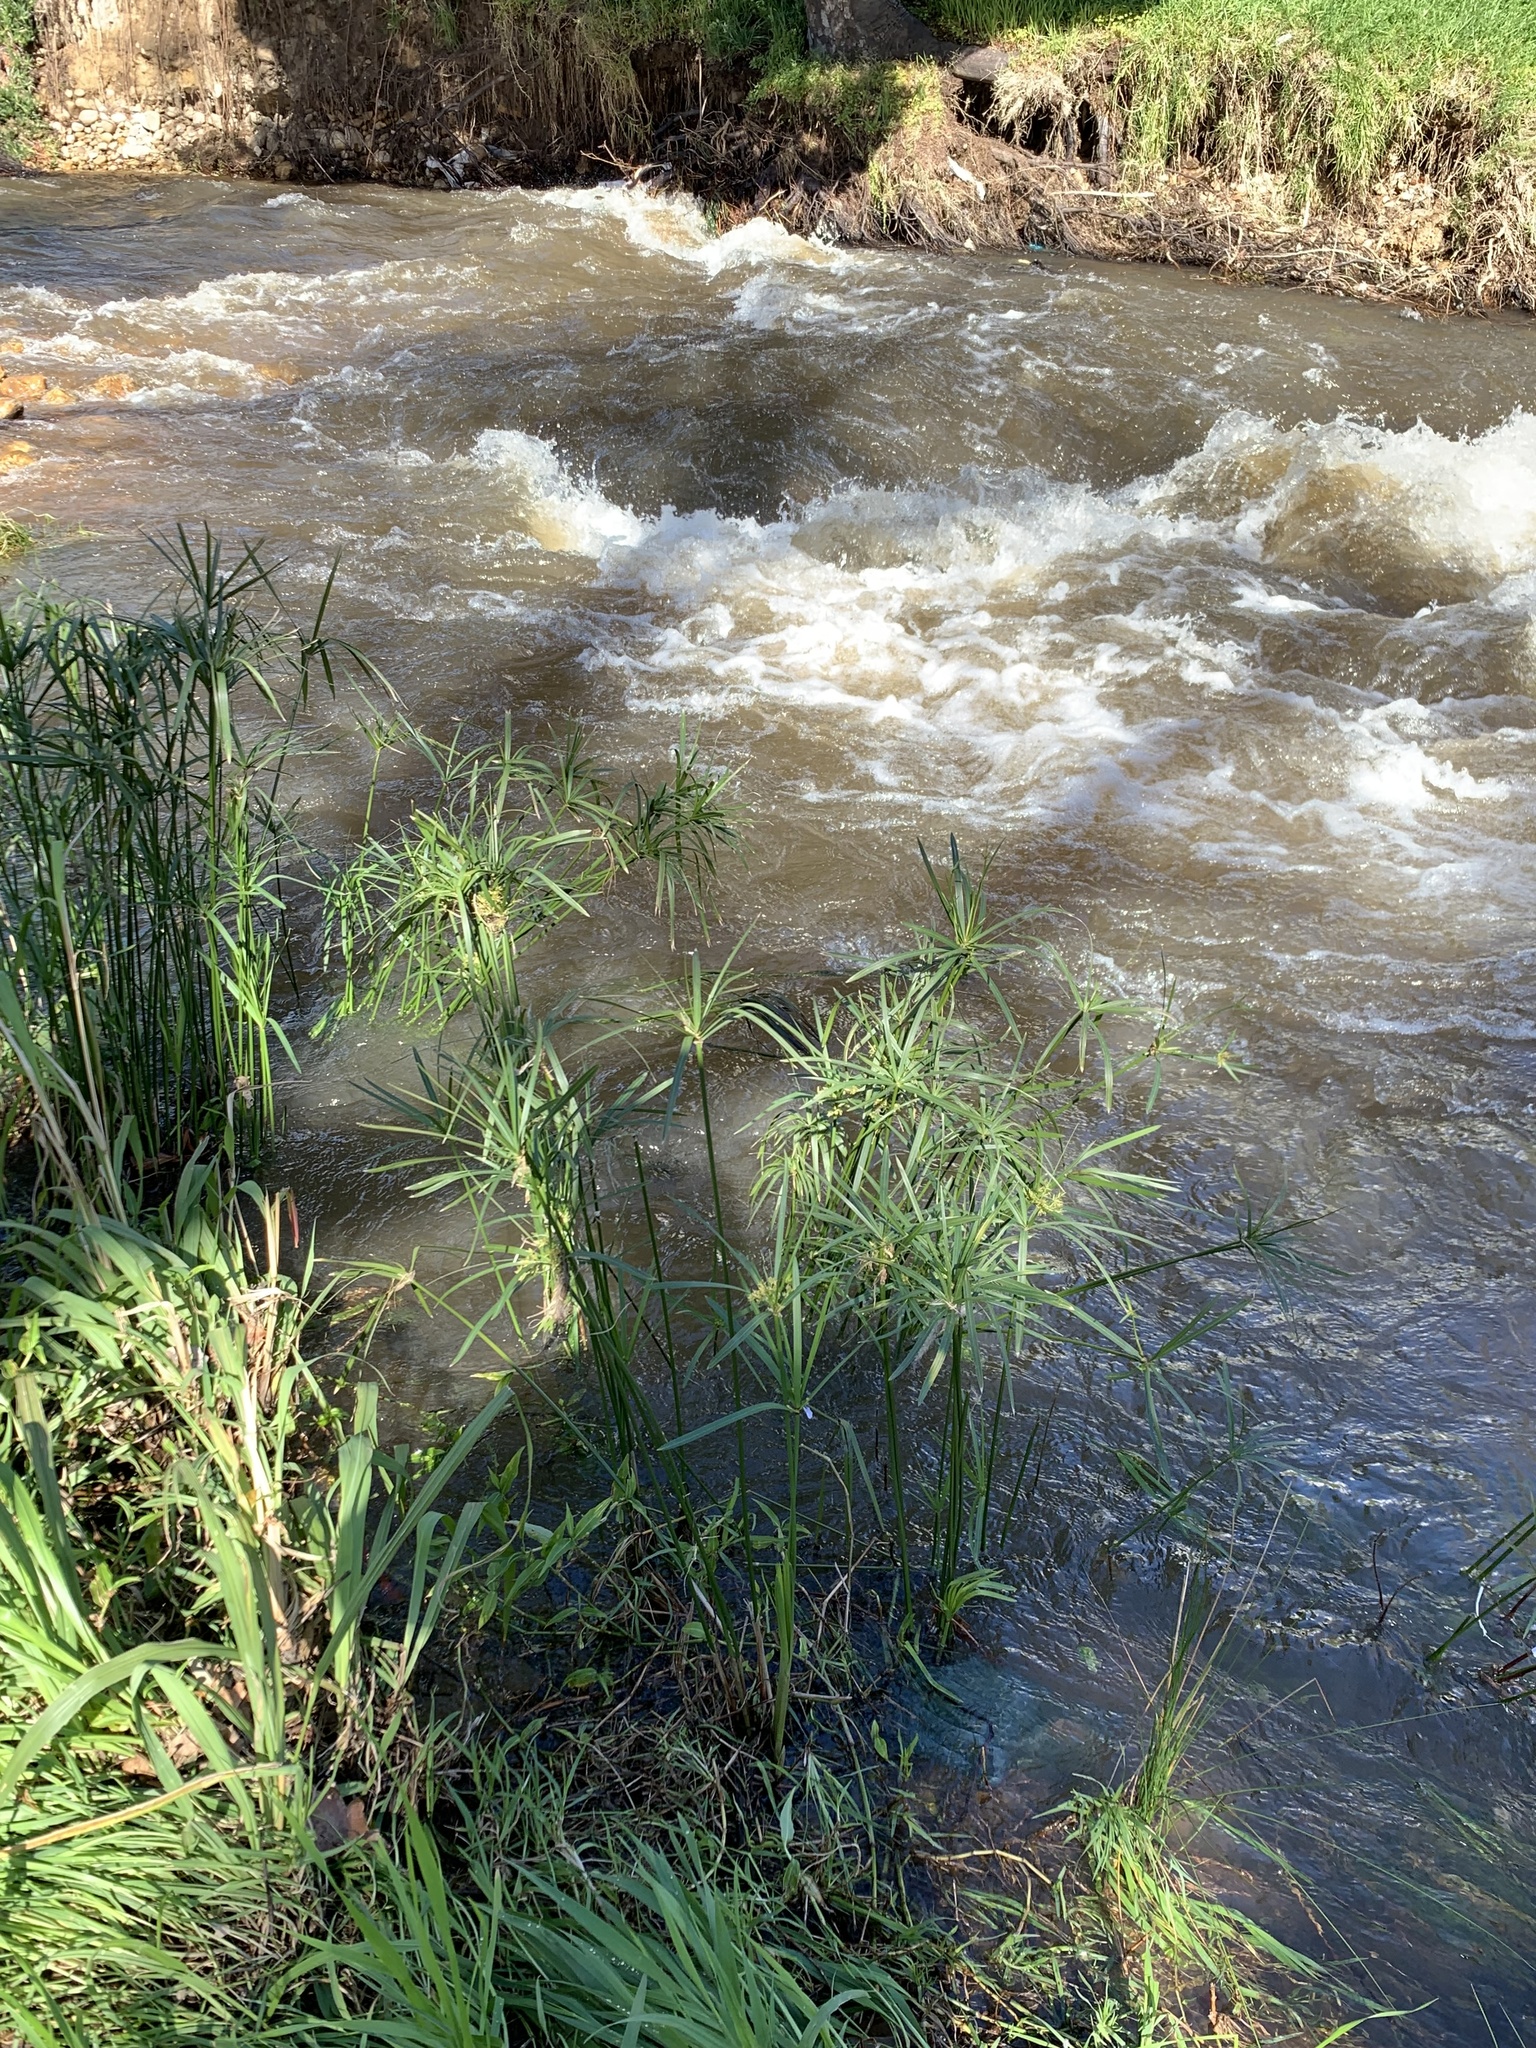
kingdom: Plantae
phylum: Tracheophyta
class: Liliopsida
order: Poales
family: Cyperaceae
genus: Cyperus
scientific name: Cyperus textilis
